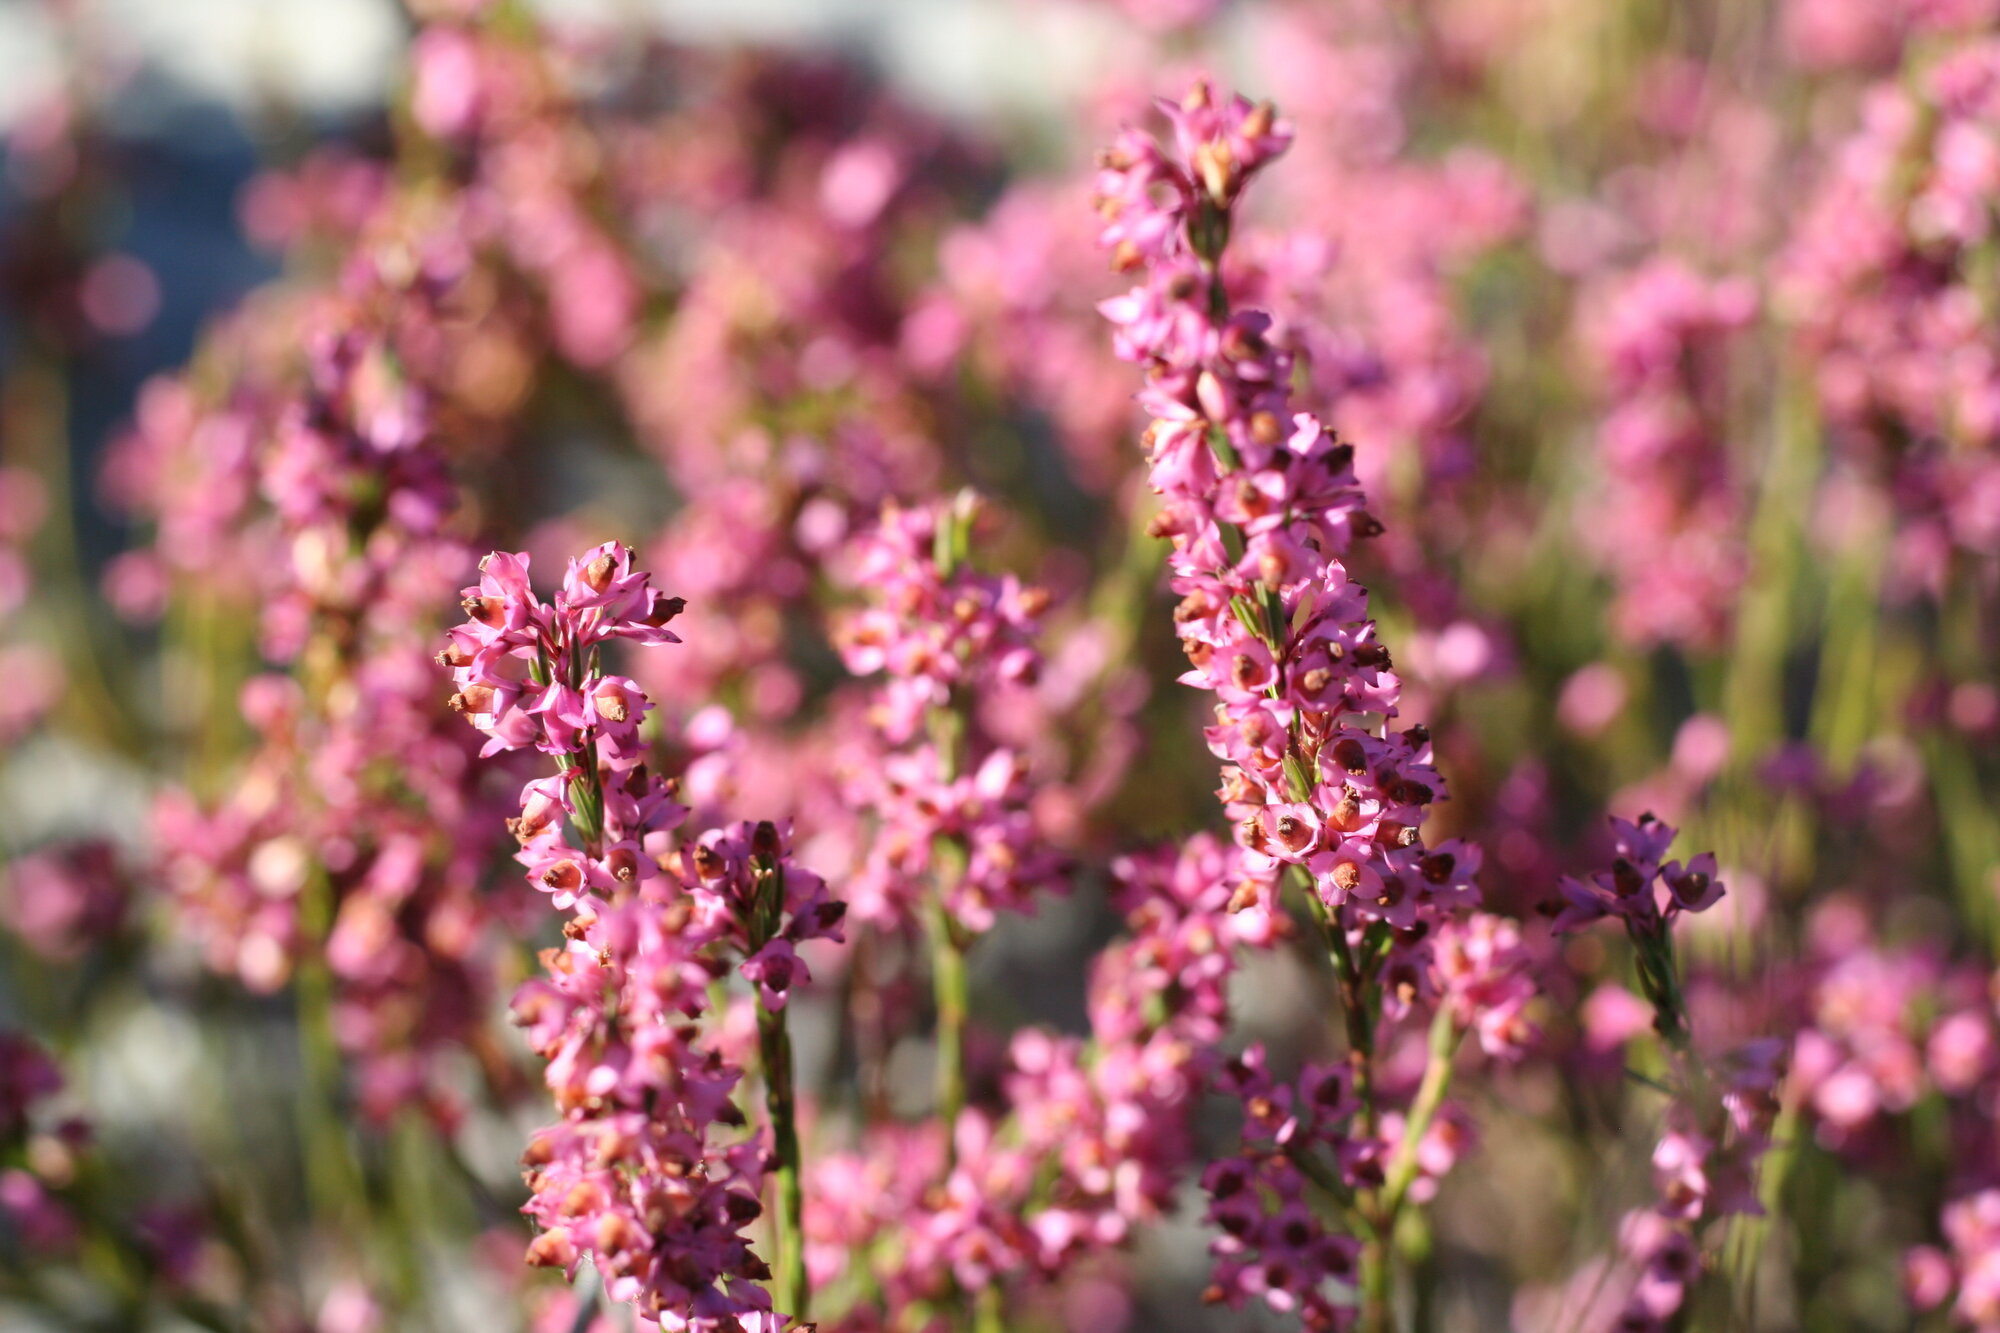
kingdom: Plantae
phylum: Tracheophyta
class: Magnoliopsida
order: Ericales
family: Ericaceae
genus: Erica
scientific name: Erica corifolia
